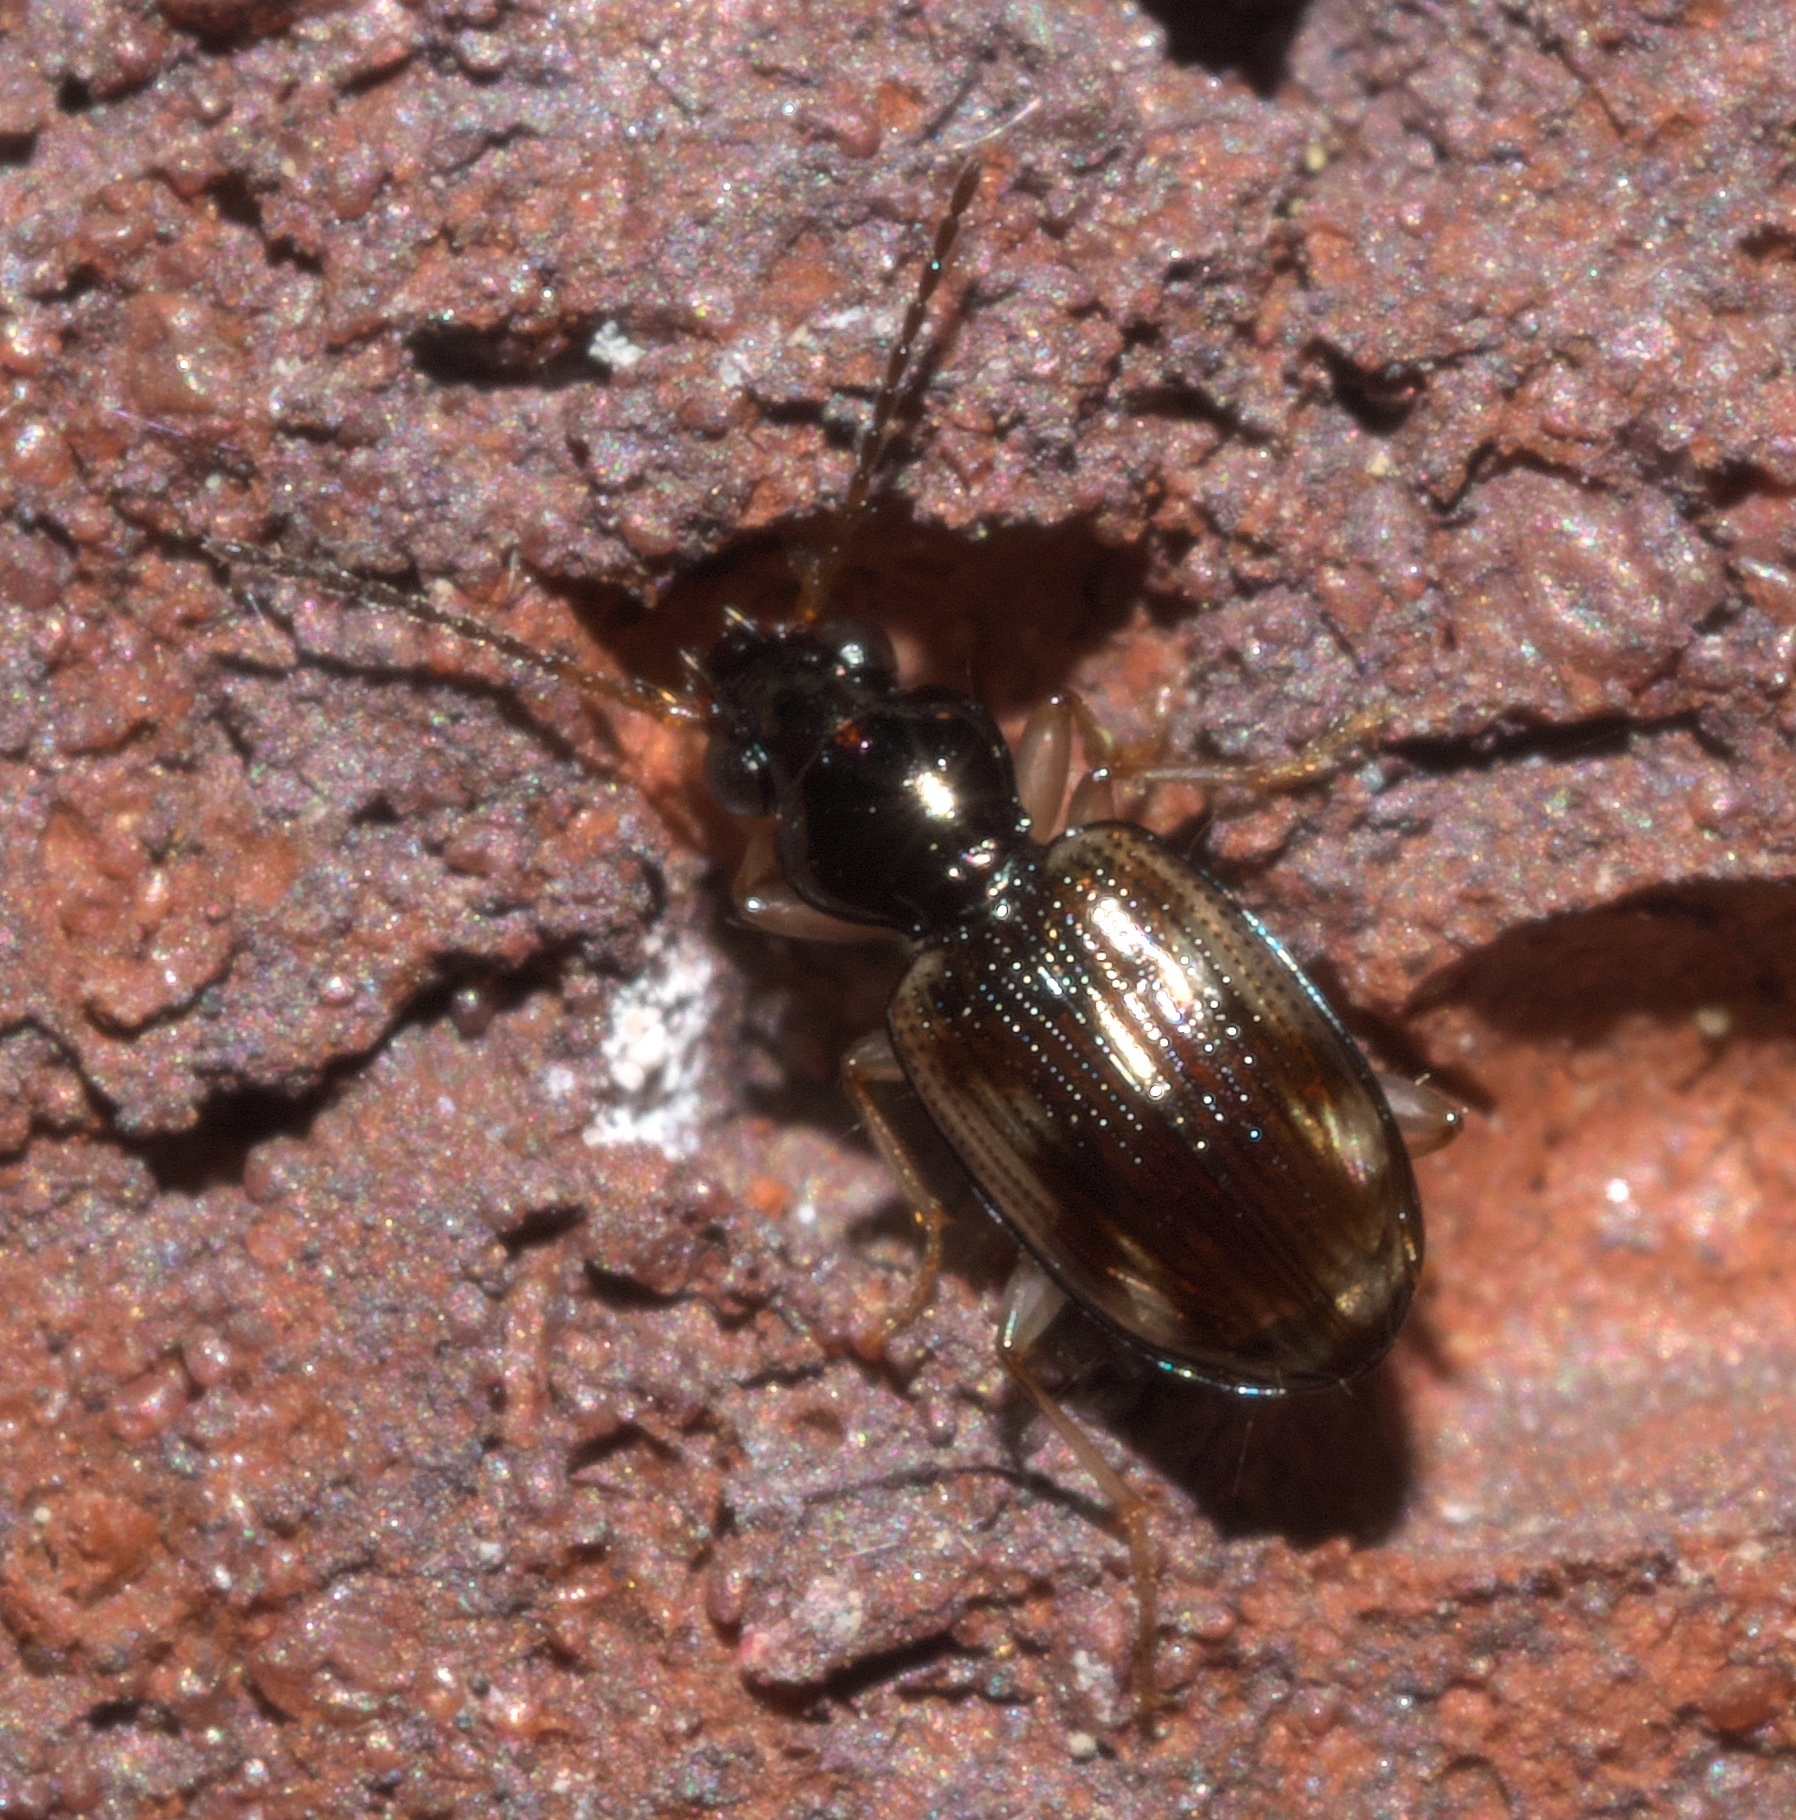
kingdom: Animalia
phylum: Arthropoda
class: Insecta
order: Coleoptera
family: Carabidae
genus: Bembidion
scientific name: Bembidion affine
